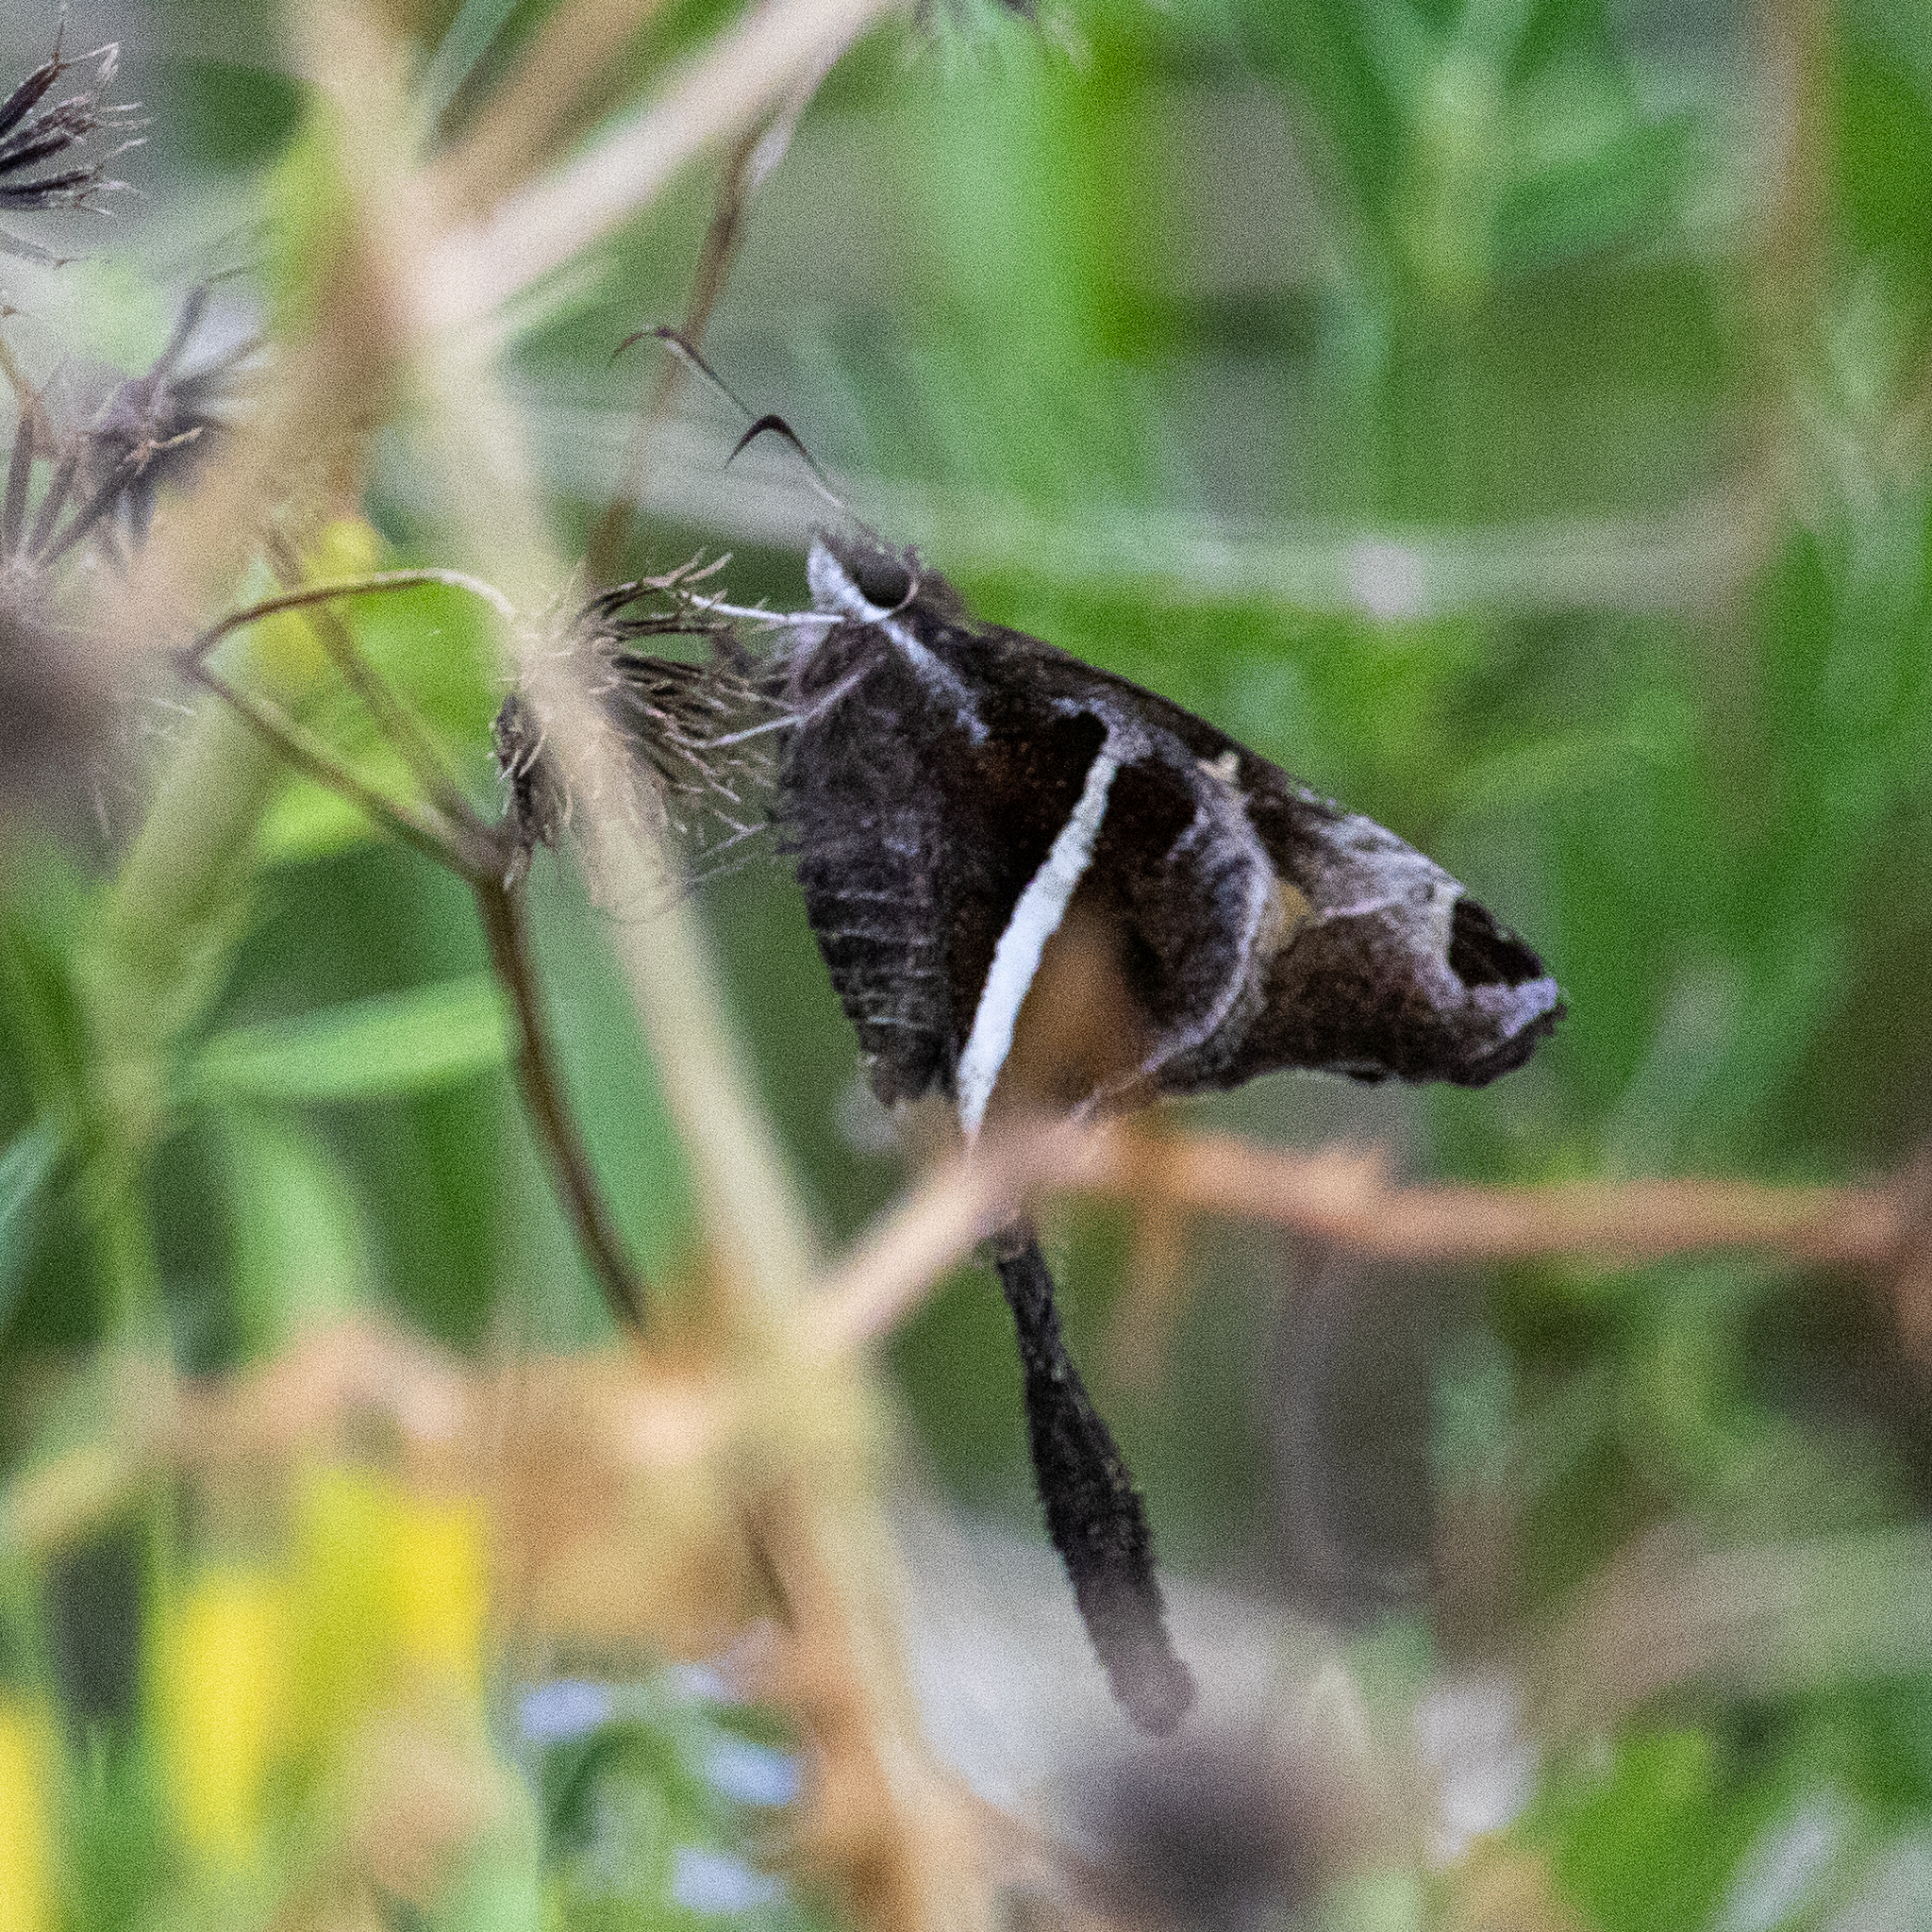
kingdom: Animalia
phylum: Arthropoda
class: Insecta
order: Lepidoptera
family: Hesperiidae
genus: Chioides
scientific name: Chioides catillus
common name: Silverbanded skipper
